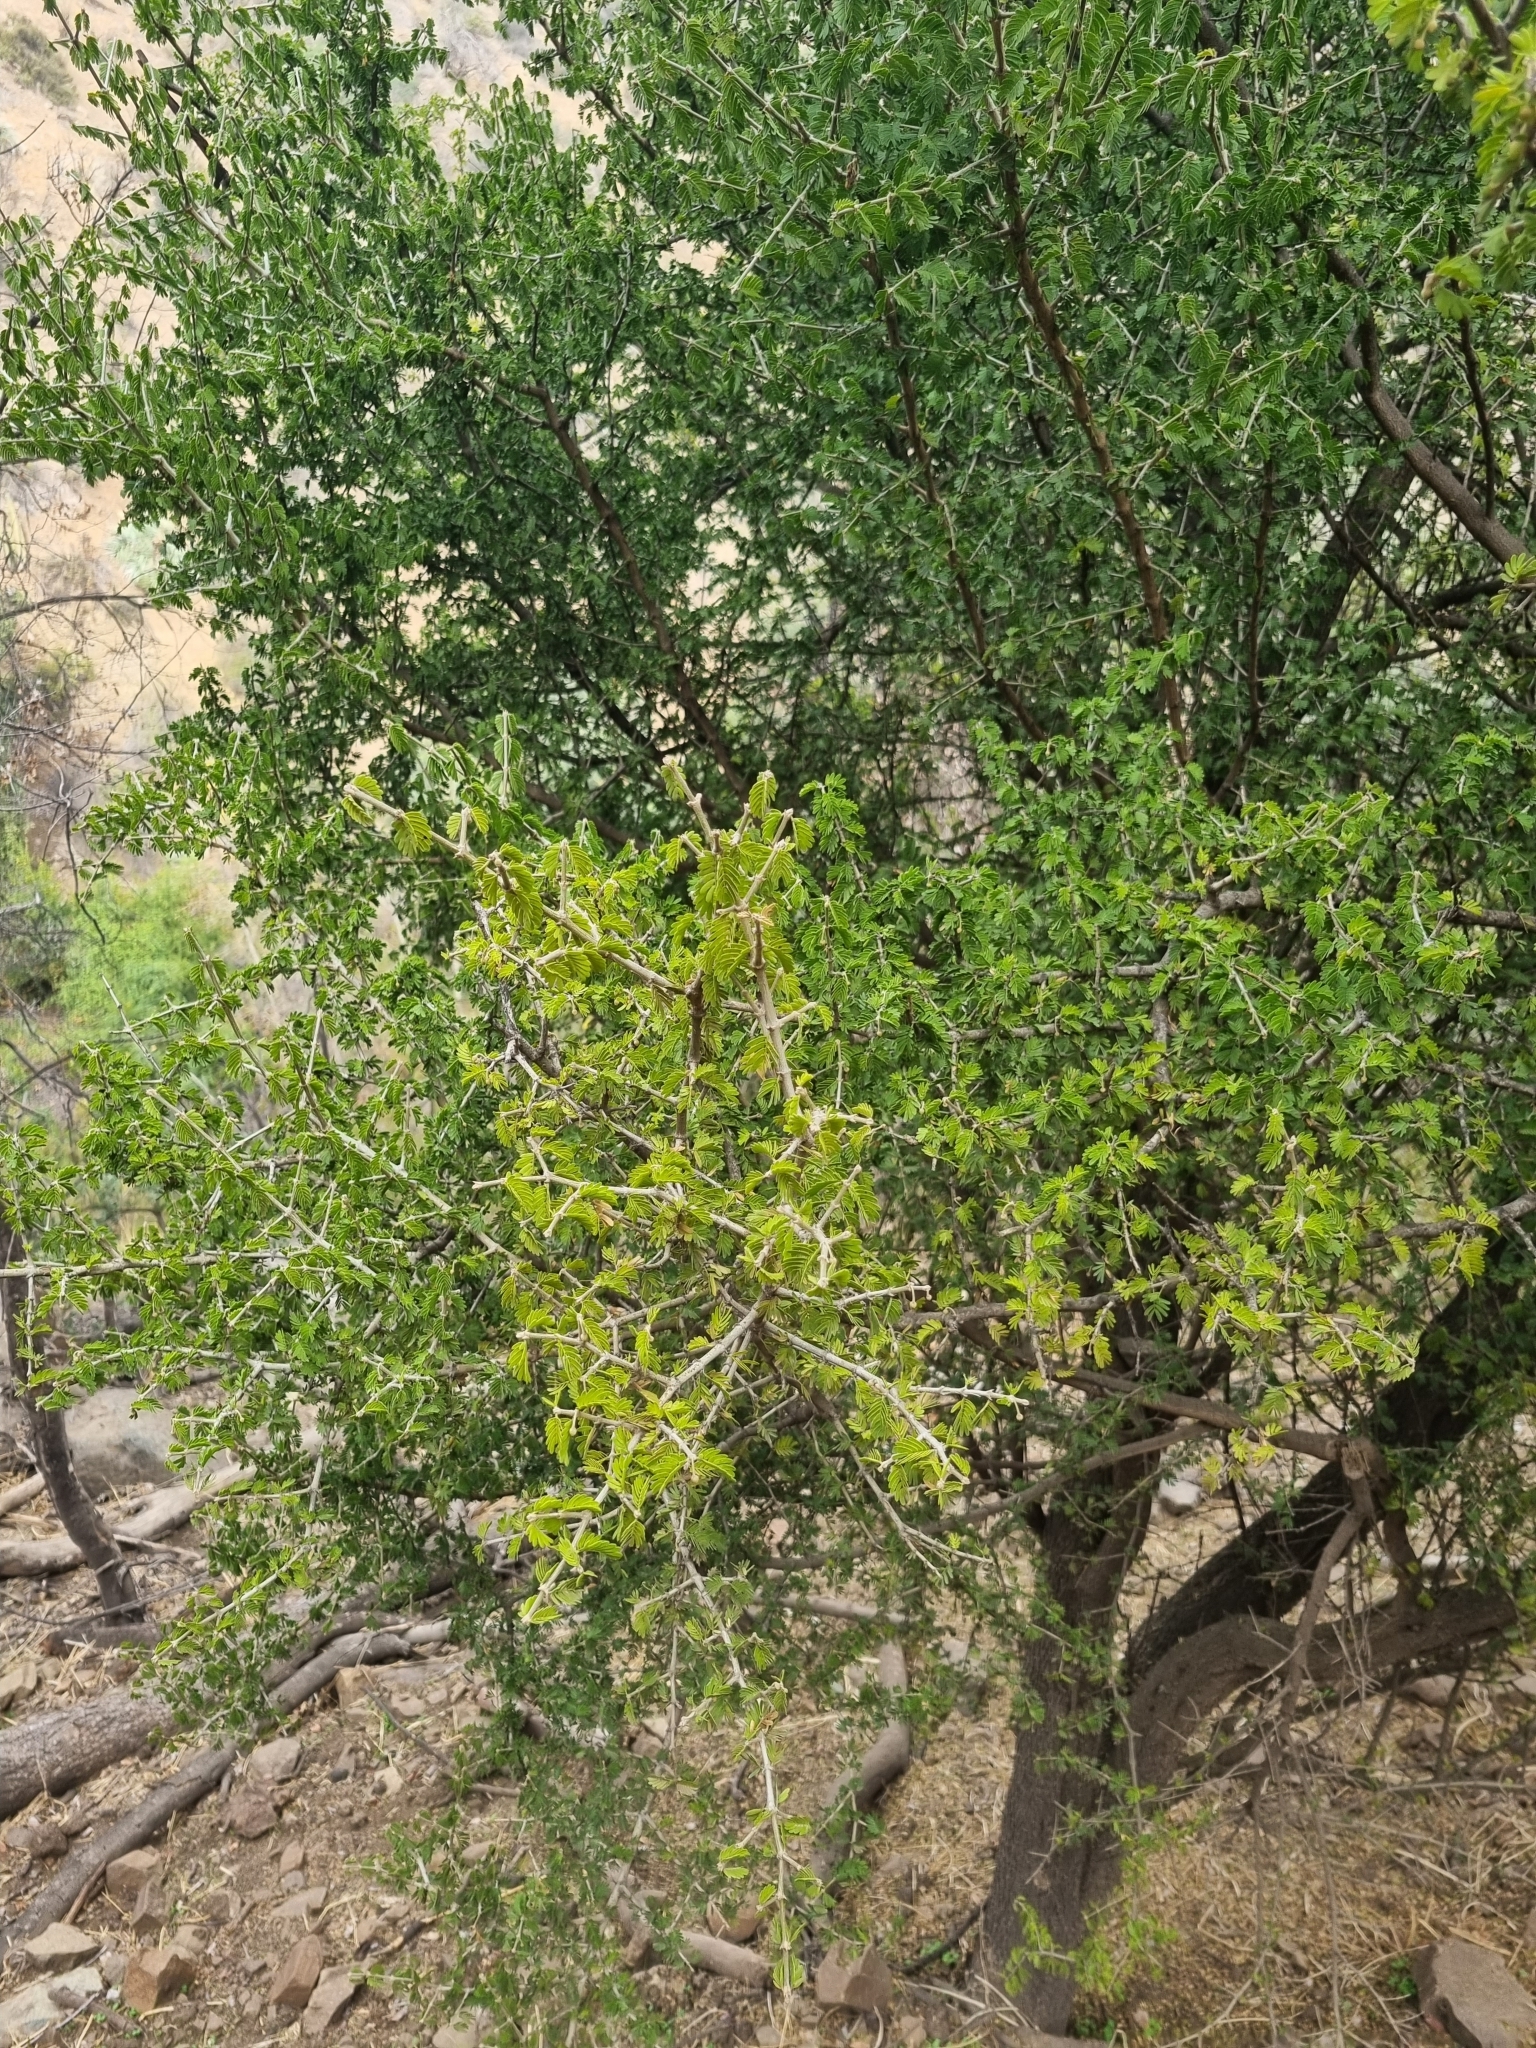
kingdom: Plantae
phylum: Tracheophyta
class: Magnoliopsida
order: Zygophyllales
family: Zygophyllaceae
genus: Porlieria
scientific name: Porlieria chilensis
